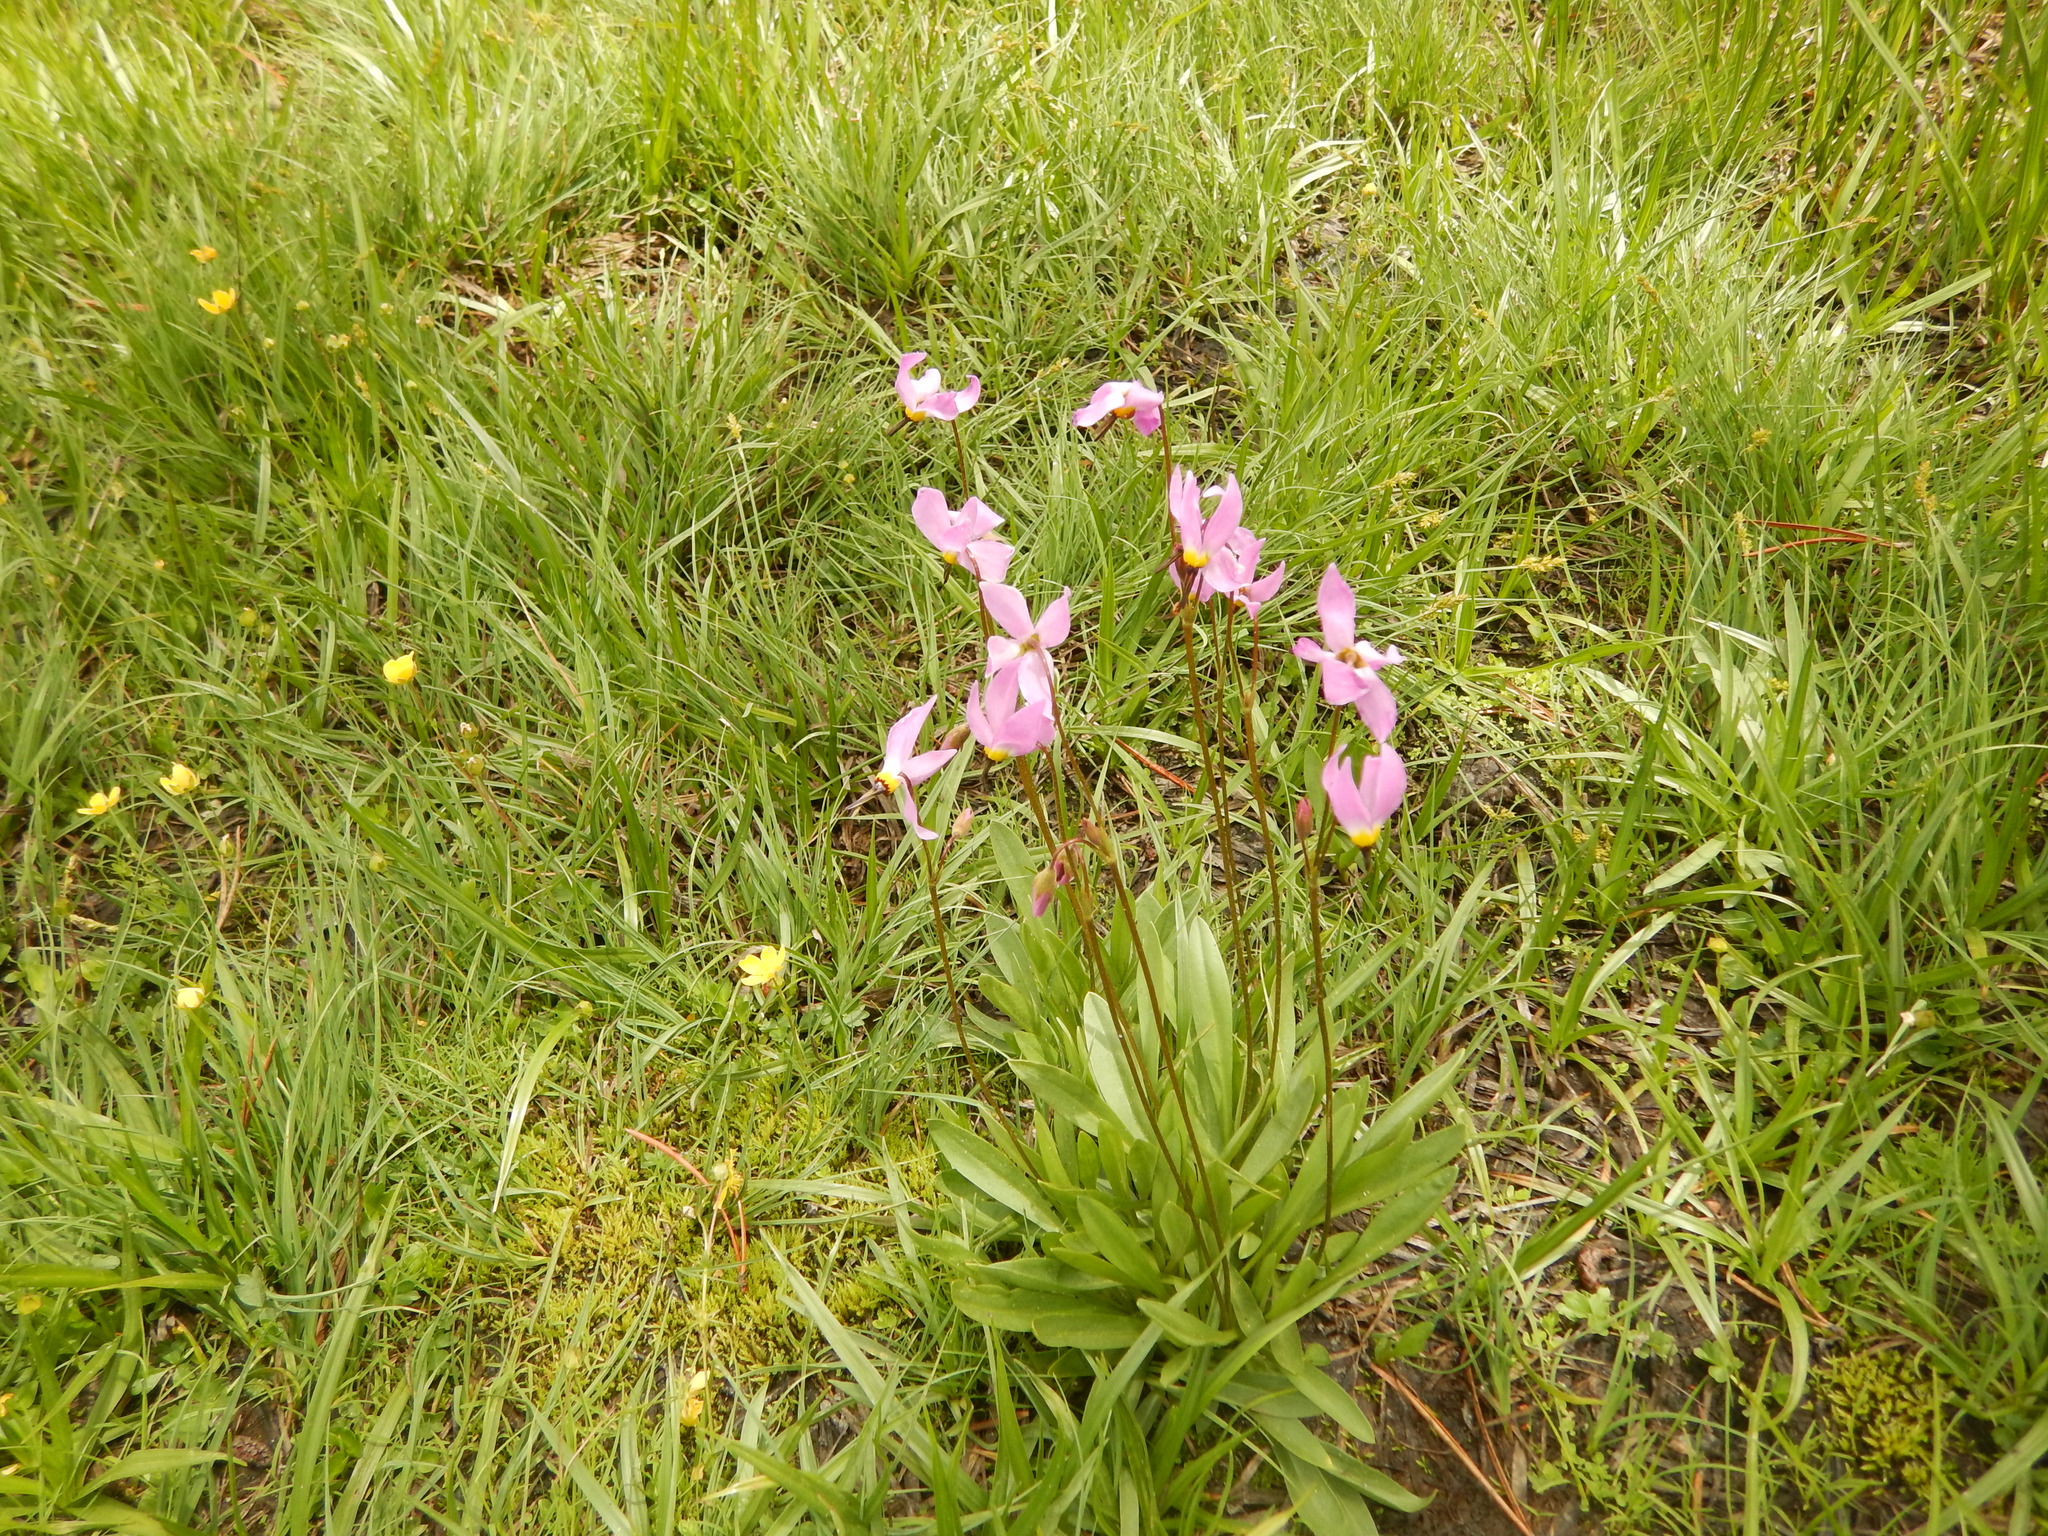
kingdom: Plantae
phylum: Tracheophyta
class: Magnoliopsida
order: Ericales
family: Primulaceae
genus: Dodecatheon
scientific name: Dodecatheon jeffreyanum
